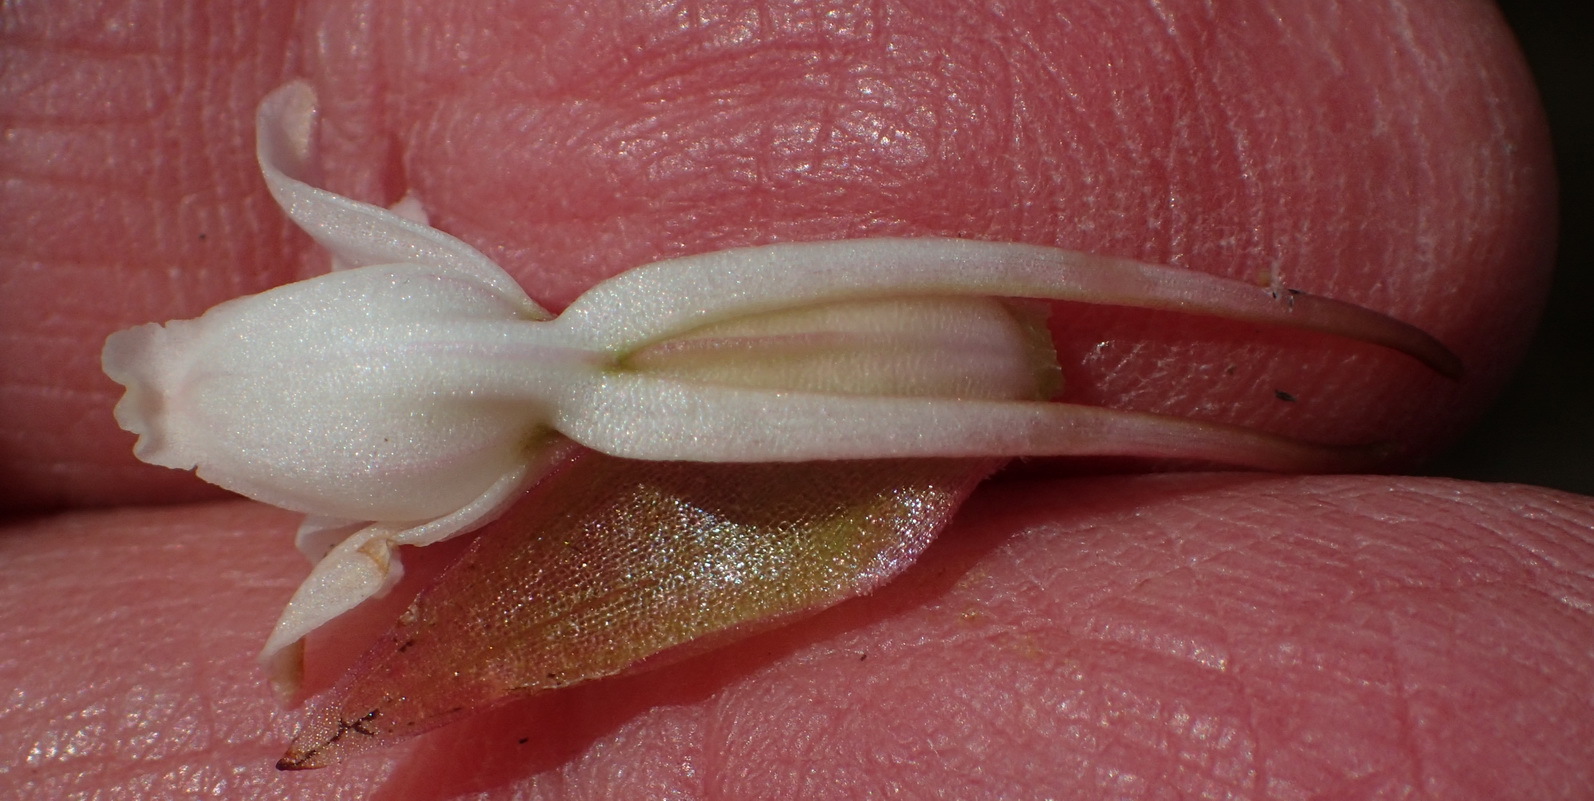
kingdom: Plantae
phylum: Tracheophyta
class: Liliopsida
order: Asparagales
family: Orchidaceae
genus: Satyrium
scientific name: Satyrium acuminatum
